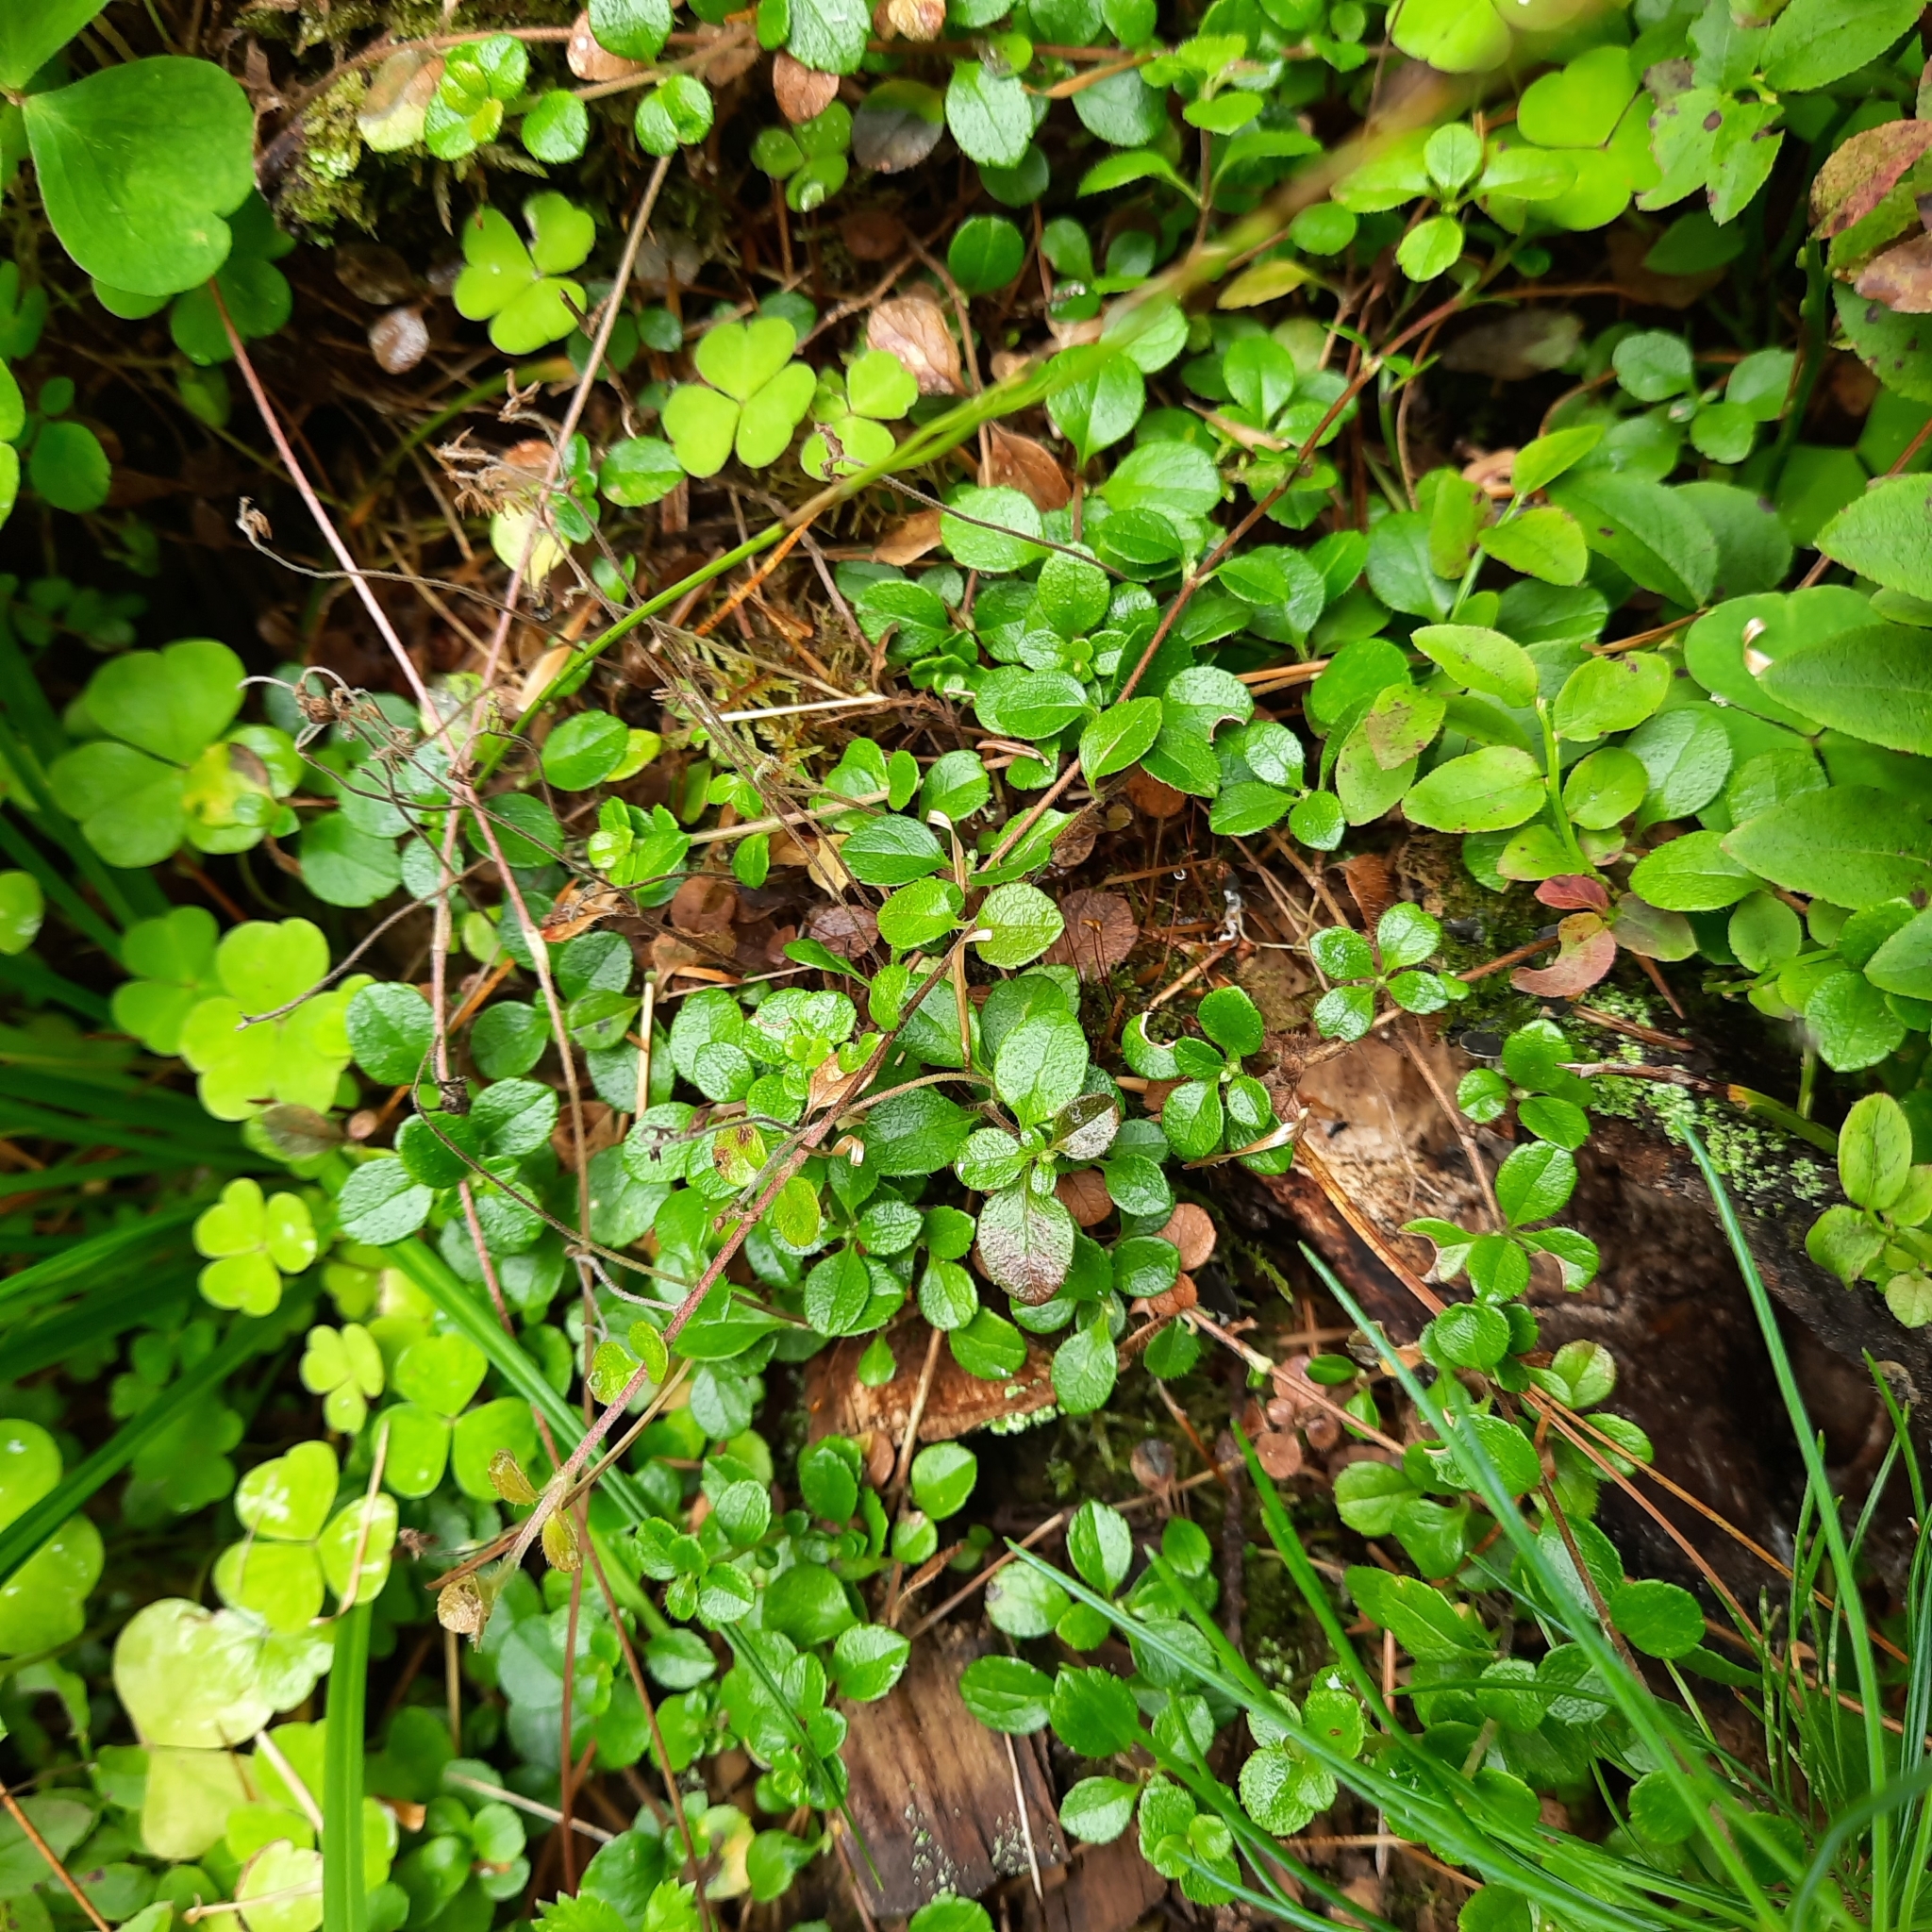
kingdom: Plantae
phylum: Tracheophyta
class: Magnoliopsida
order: Dipsacales
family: Caprifoliaceae
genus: Linnaea
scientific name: Linnaea borealis
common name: Twinflower
